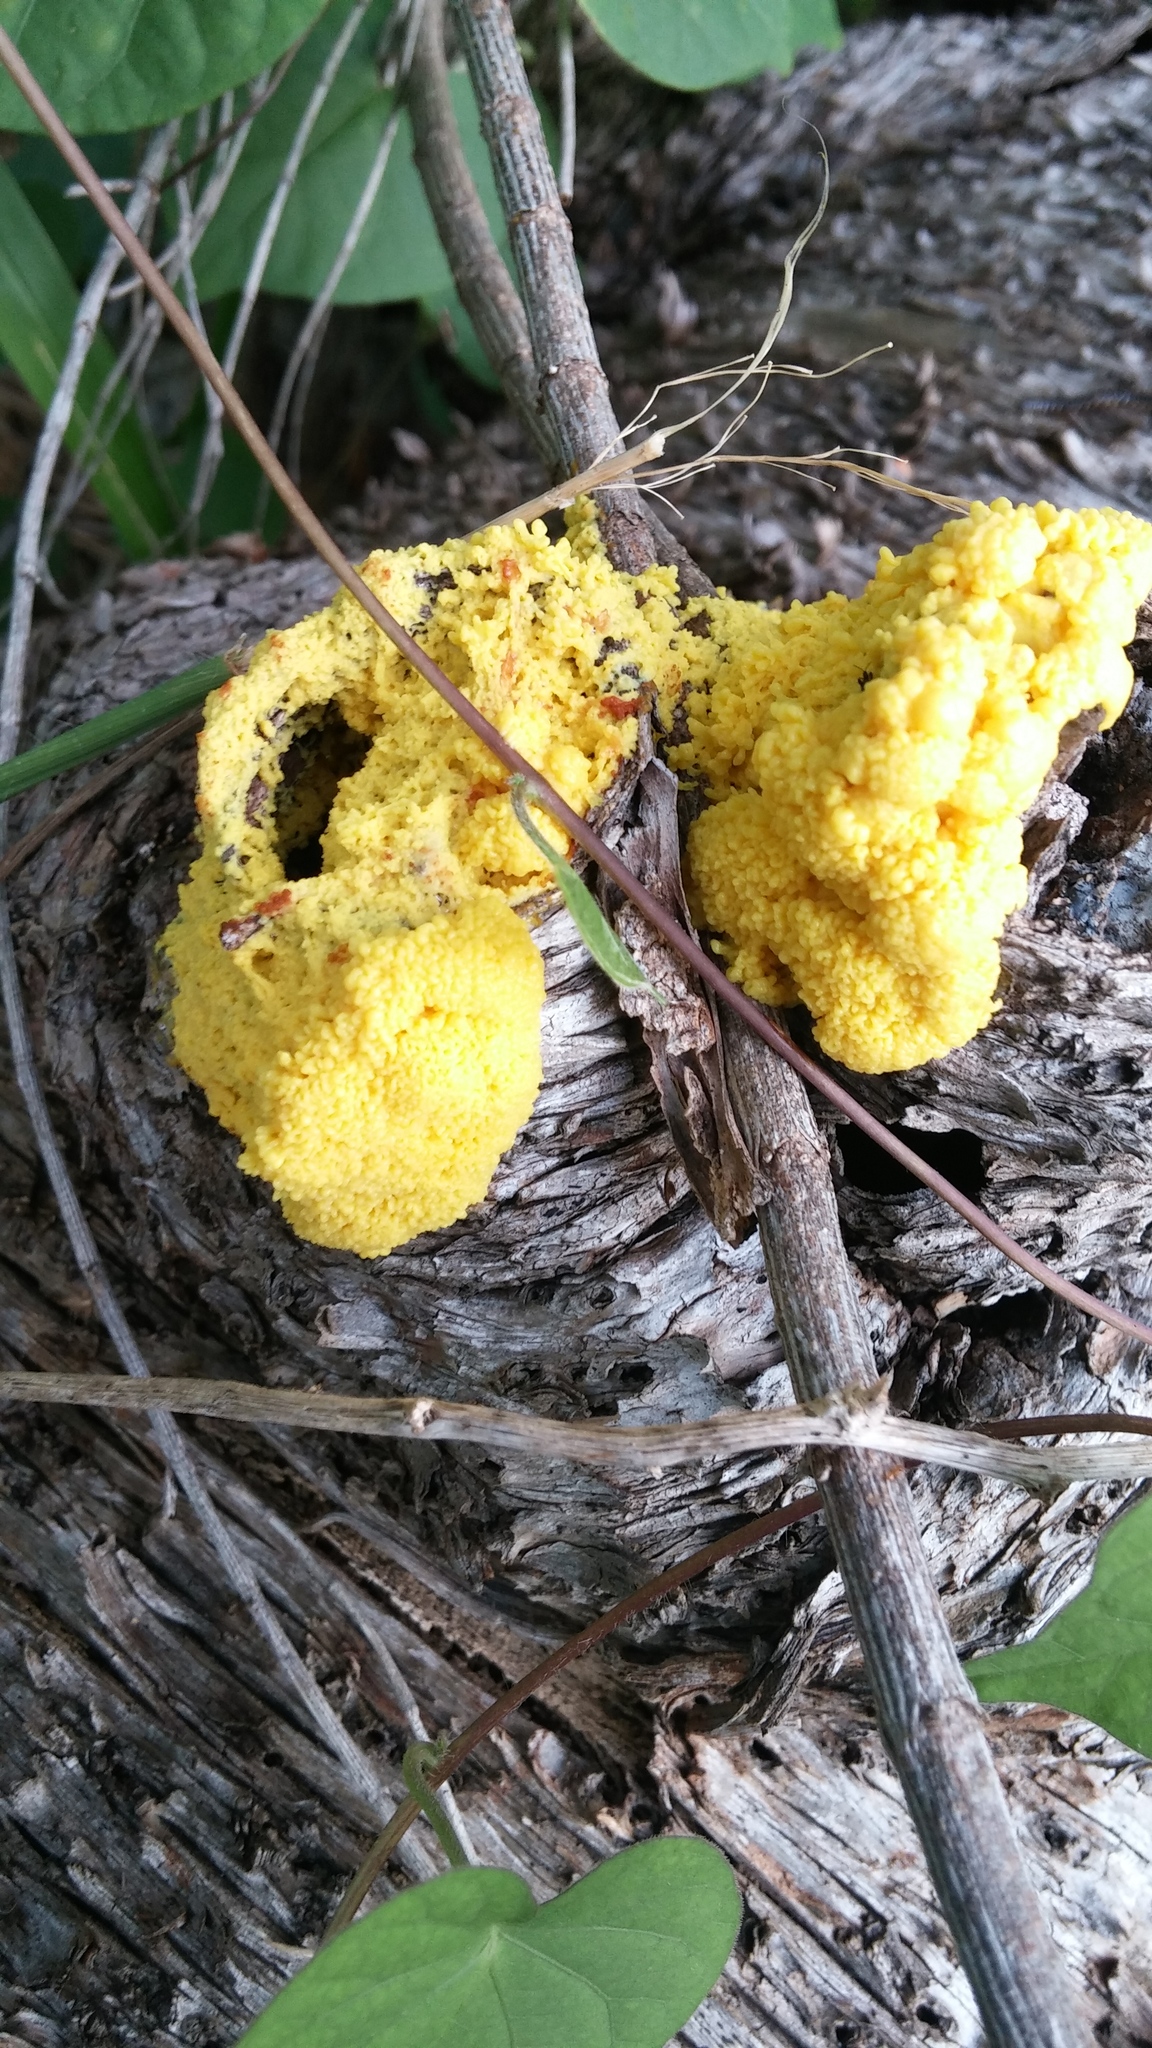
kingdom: Protozoa
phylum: Mycetozoa
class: Myxomycetes
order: Physarales
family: Physaraceae
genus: Fuligo
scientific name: Fuligo septica
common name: Dog vomit slime mold
